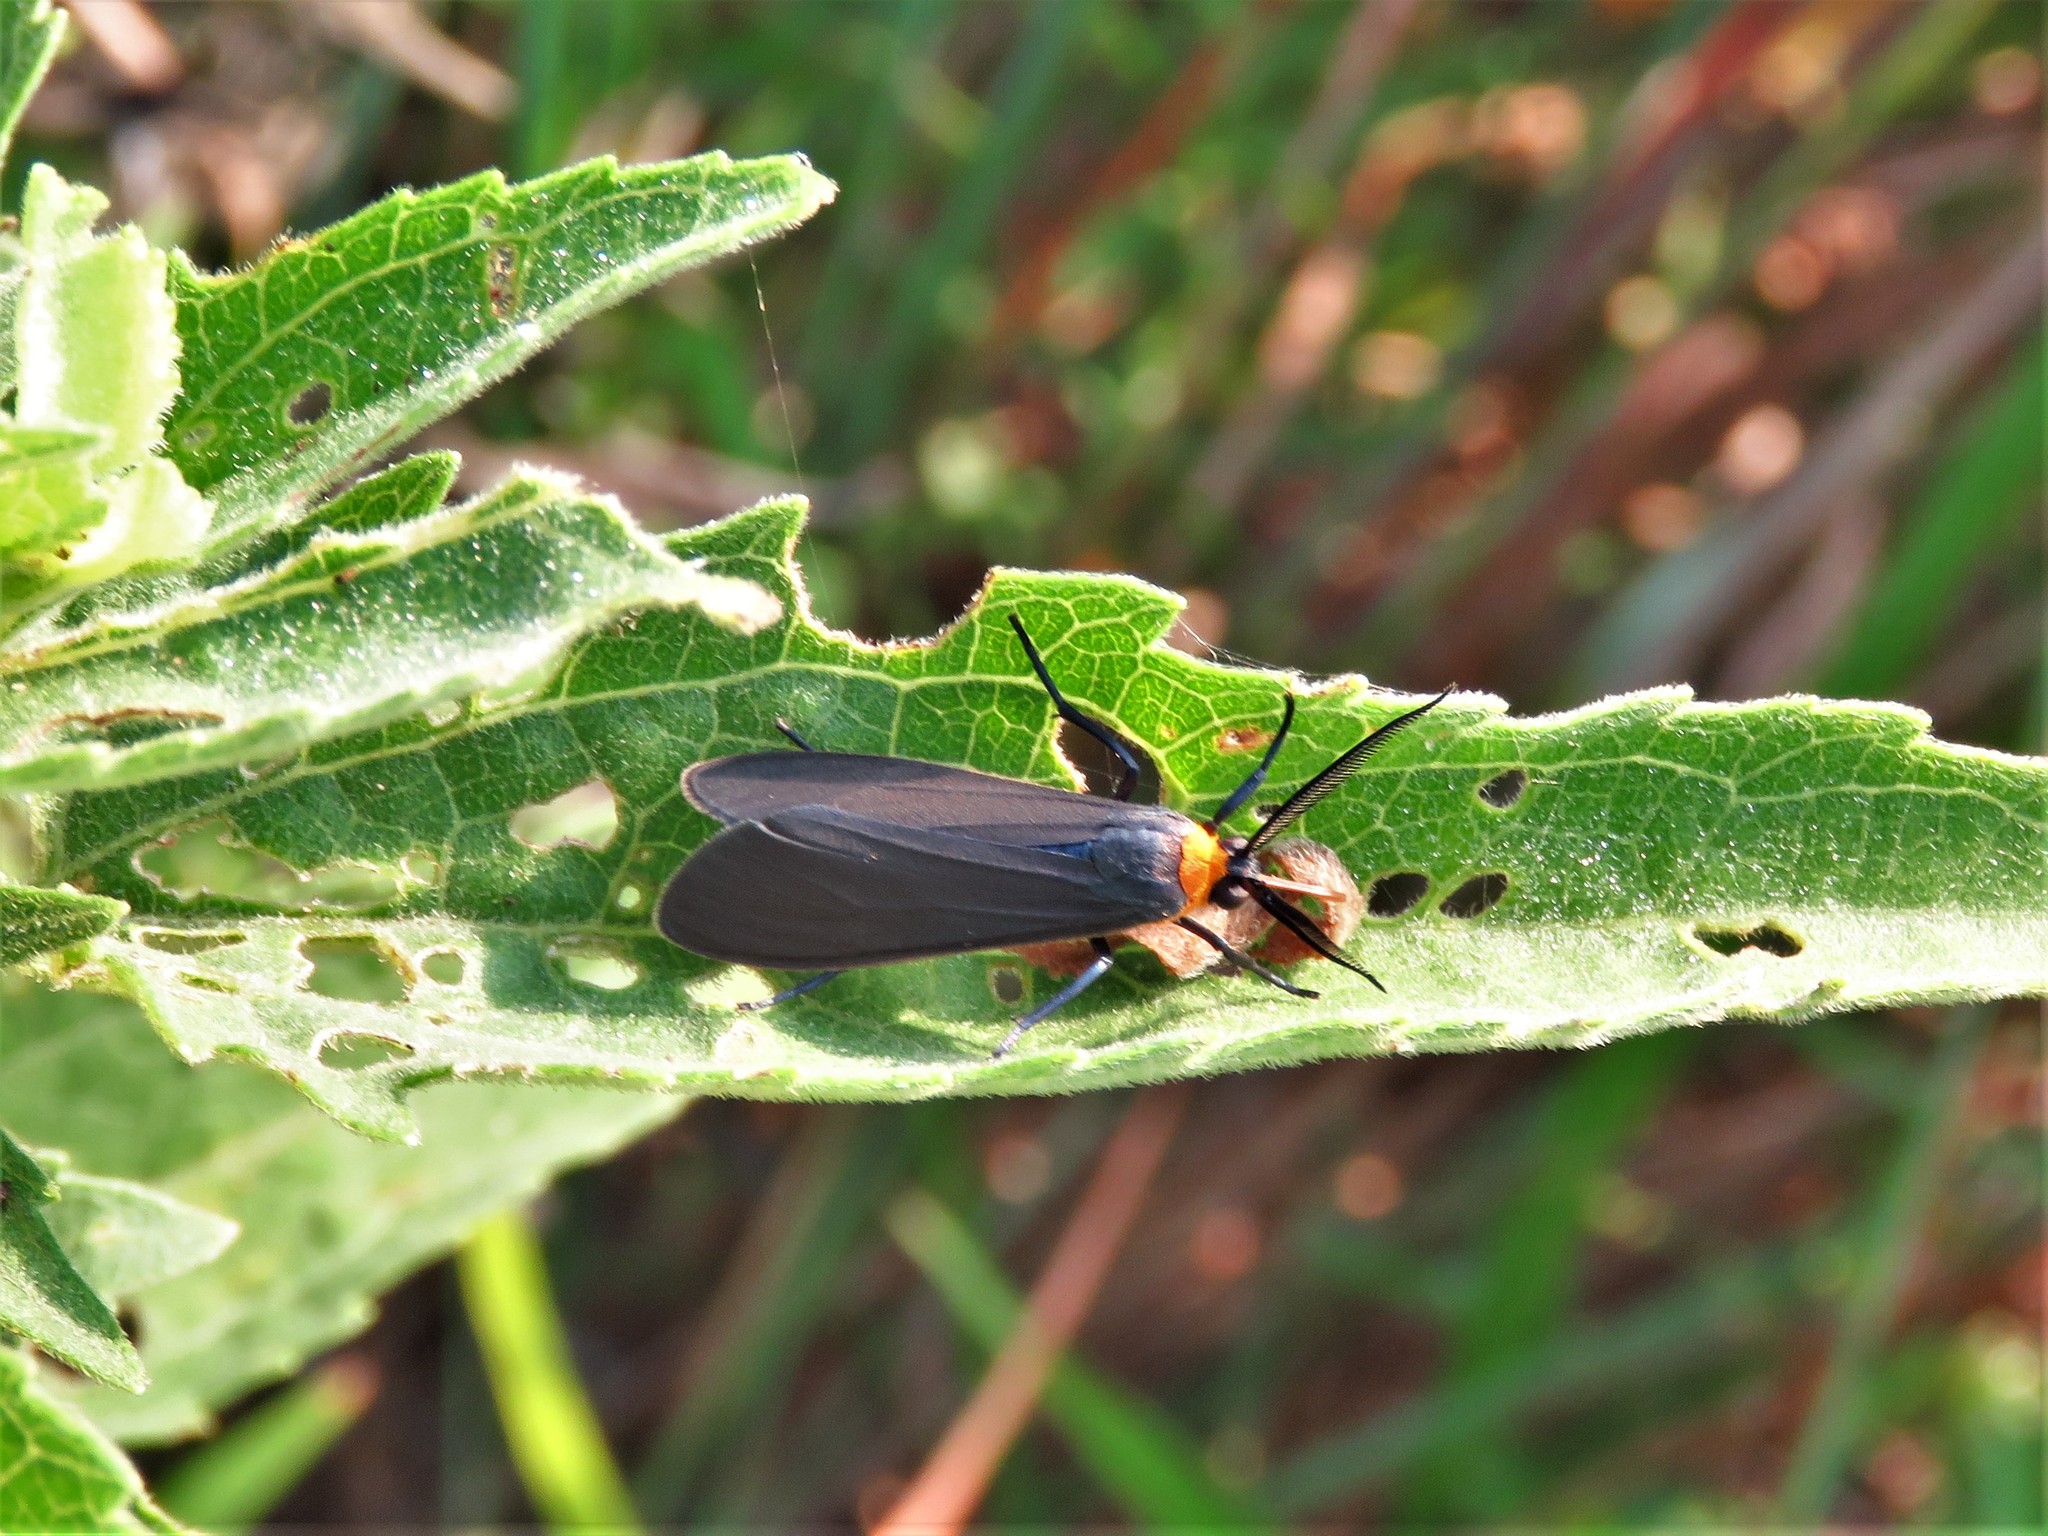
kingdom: Animalia
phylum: Arthropoda
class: Insecta
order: Lepidoptera
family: Erebidae
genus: Cisseps
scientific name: Cisseps fulvicollis
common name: Yellow-collared scape moth
